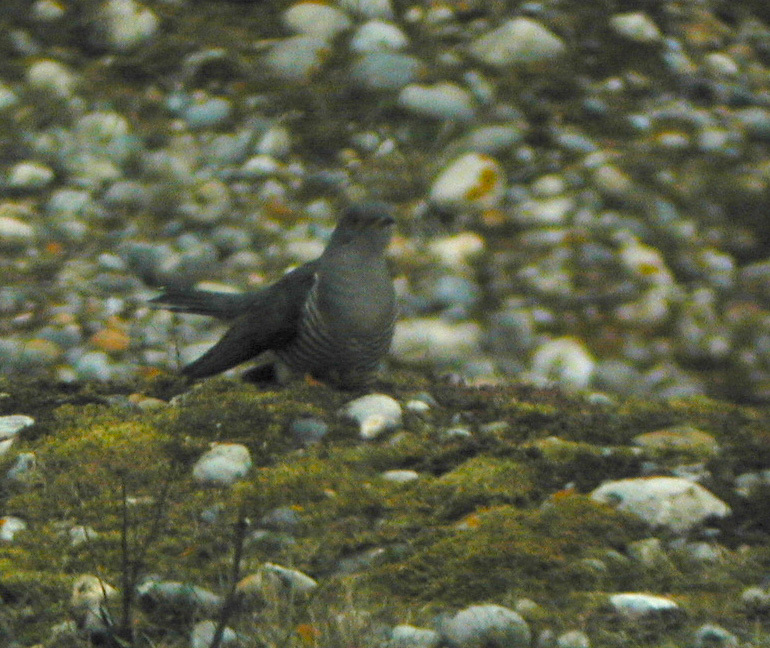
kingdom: Animalia
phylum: Chordata
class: Aves
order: Cuculiformes
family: Cuculidae
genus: Cuculus
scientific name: Cuculus canorus
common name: Common cuckoo
